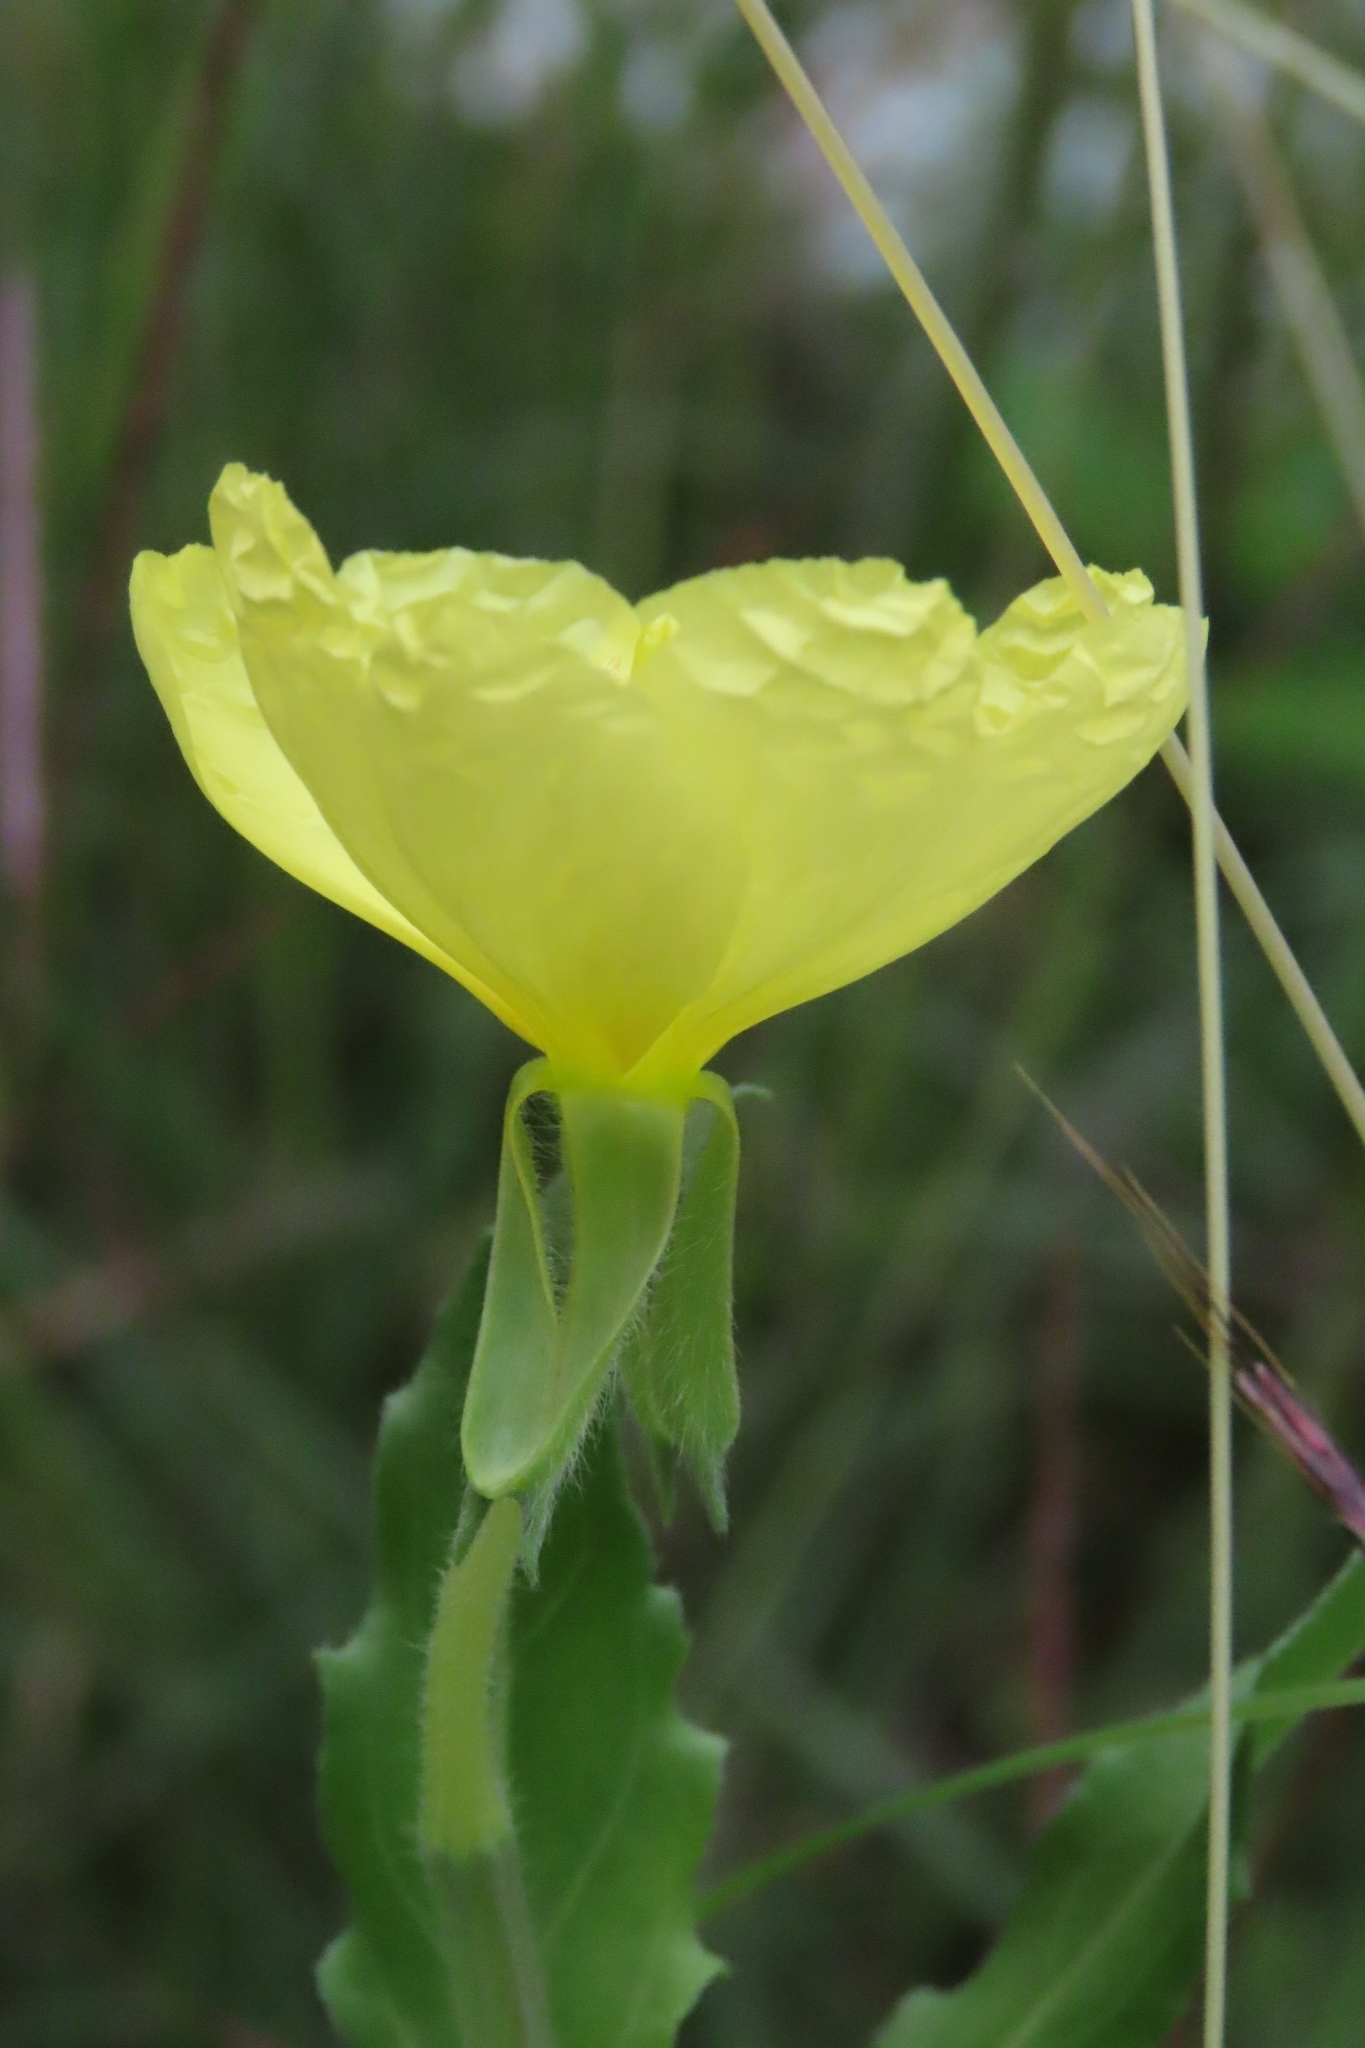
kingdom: Plantae
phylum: Tracheophyta
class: Magnoliopsida
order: Myrtales
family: Onagraceae
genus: Oenothera
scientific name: Oenothera laciniata
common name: Cut-leaved evening-primrose
